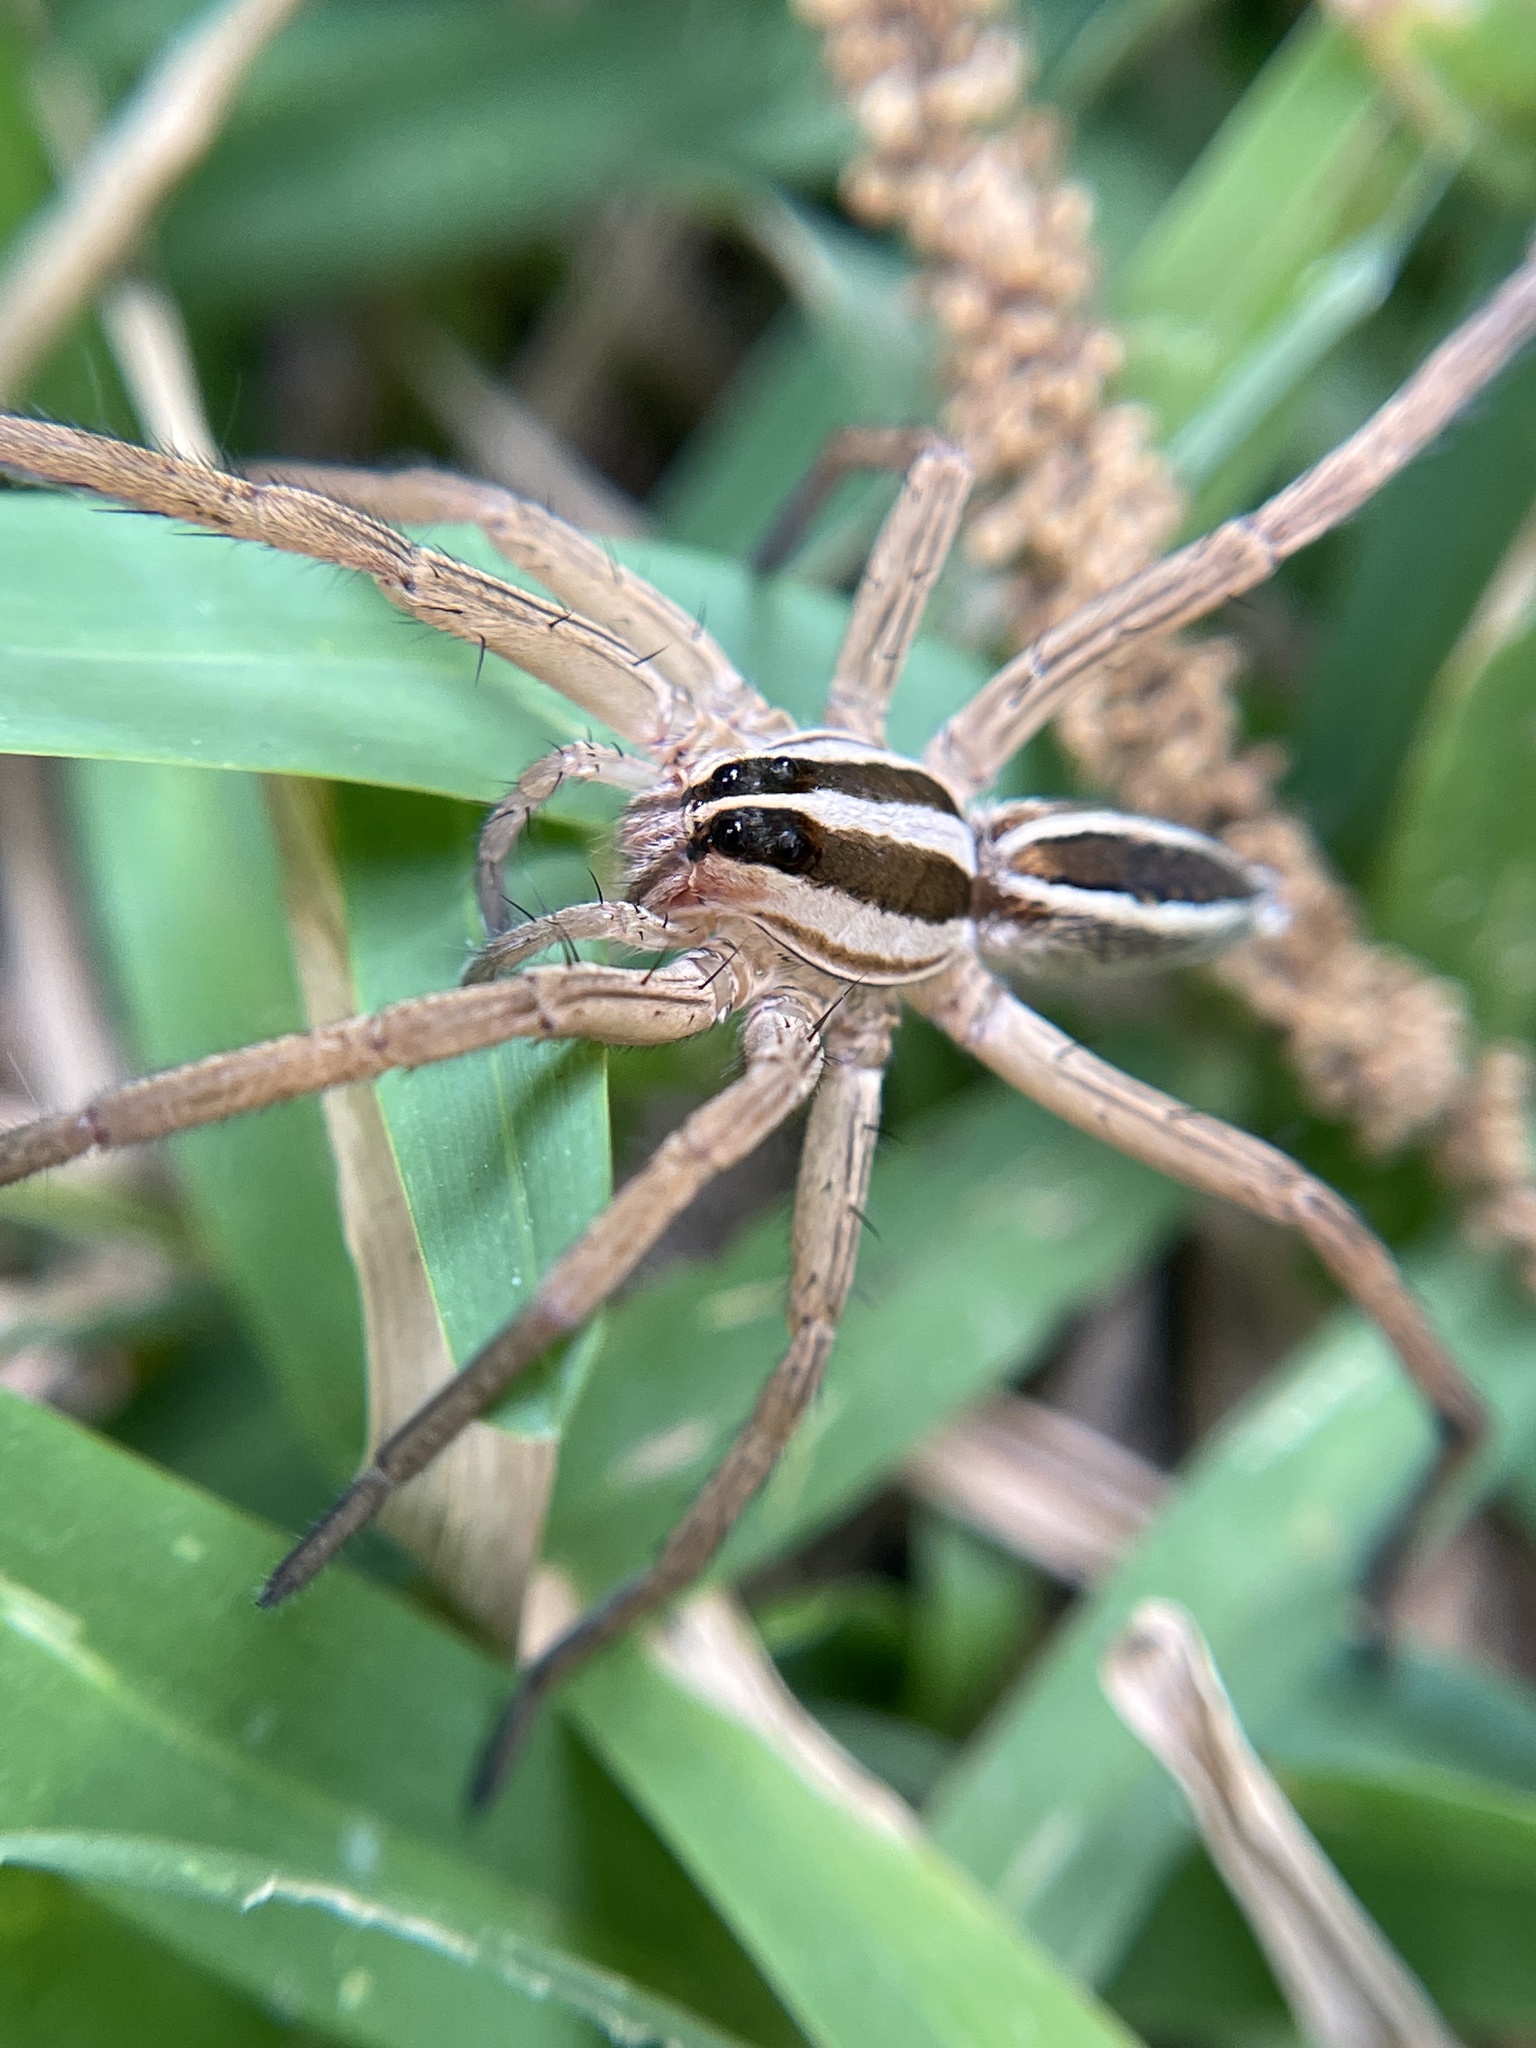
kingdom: Animalia
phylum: Arthropoda
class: Arachnida
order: Araneae
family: Lycosidae
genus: Rabidosa
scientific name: Rabidosa rabida
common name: Rabid wolf spider
